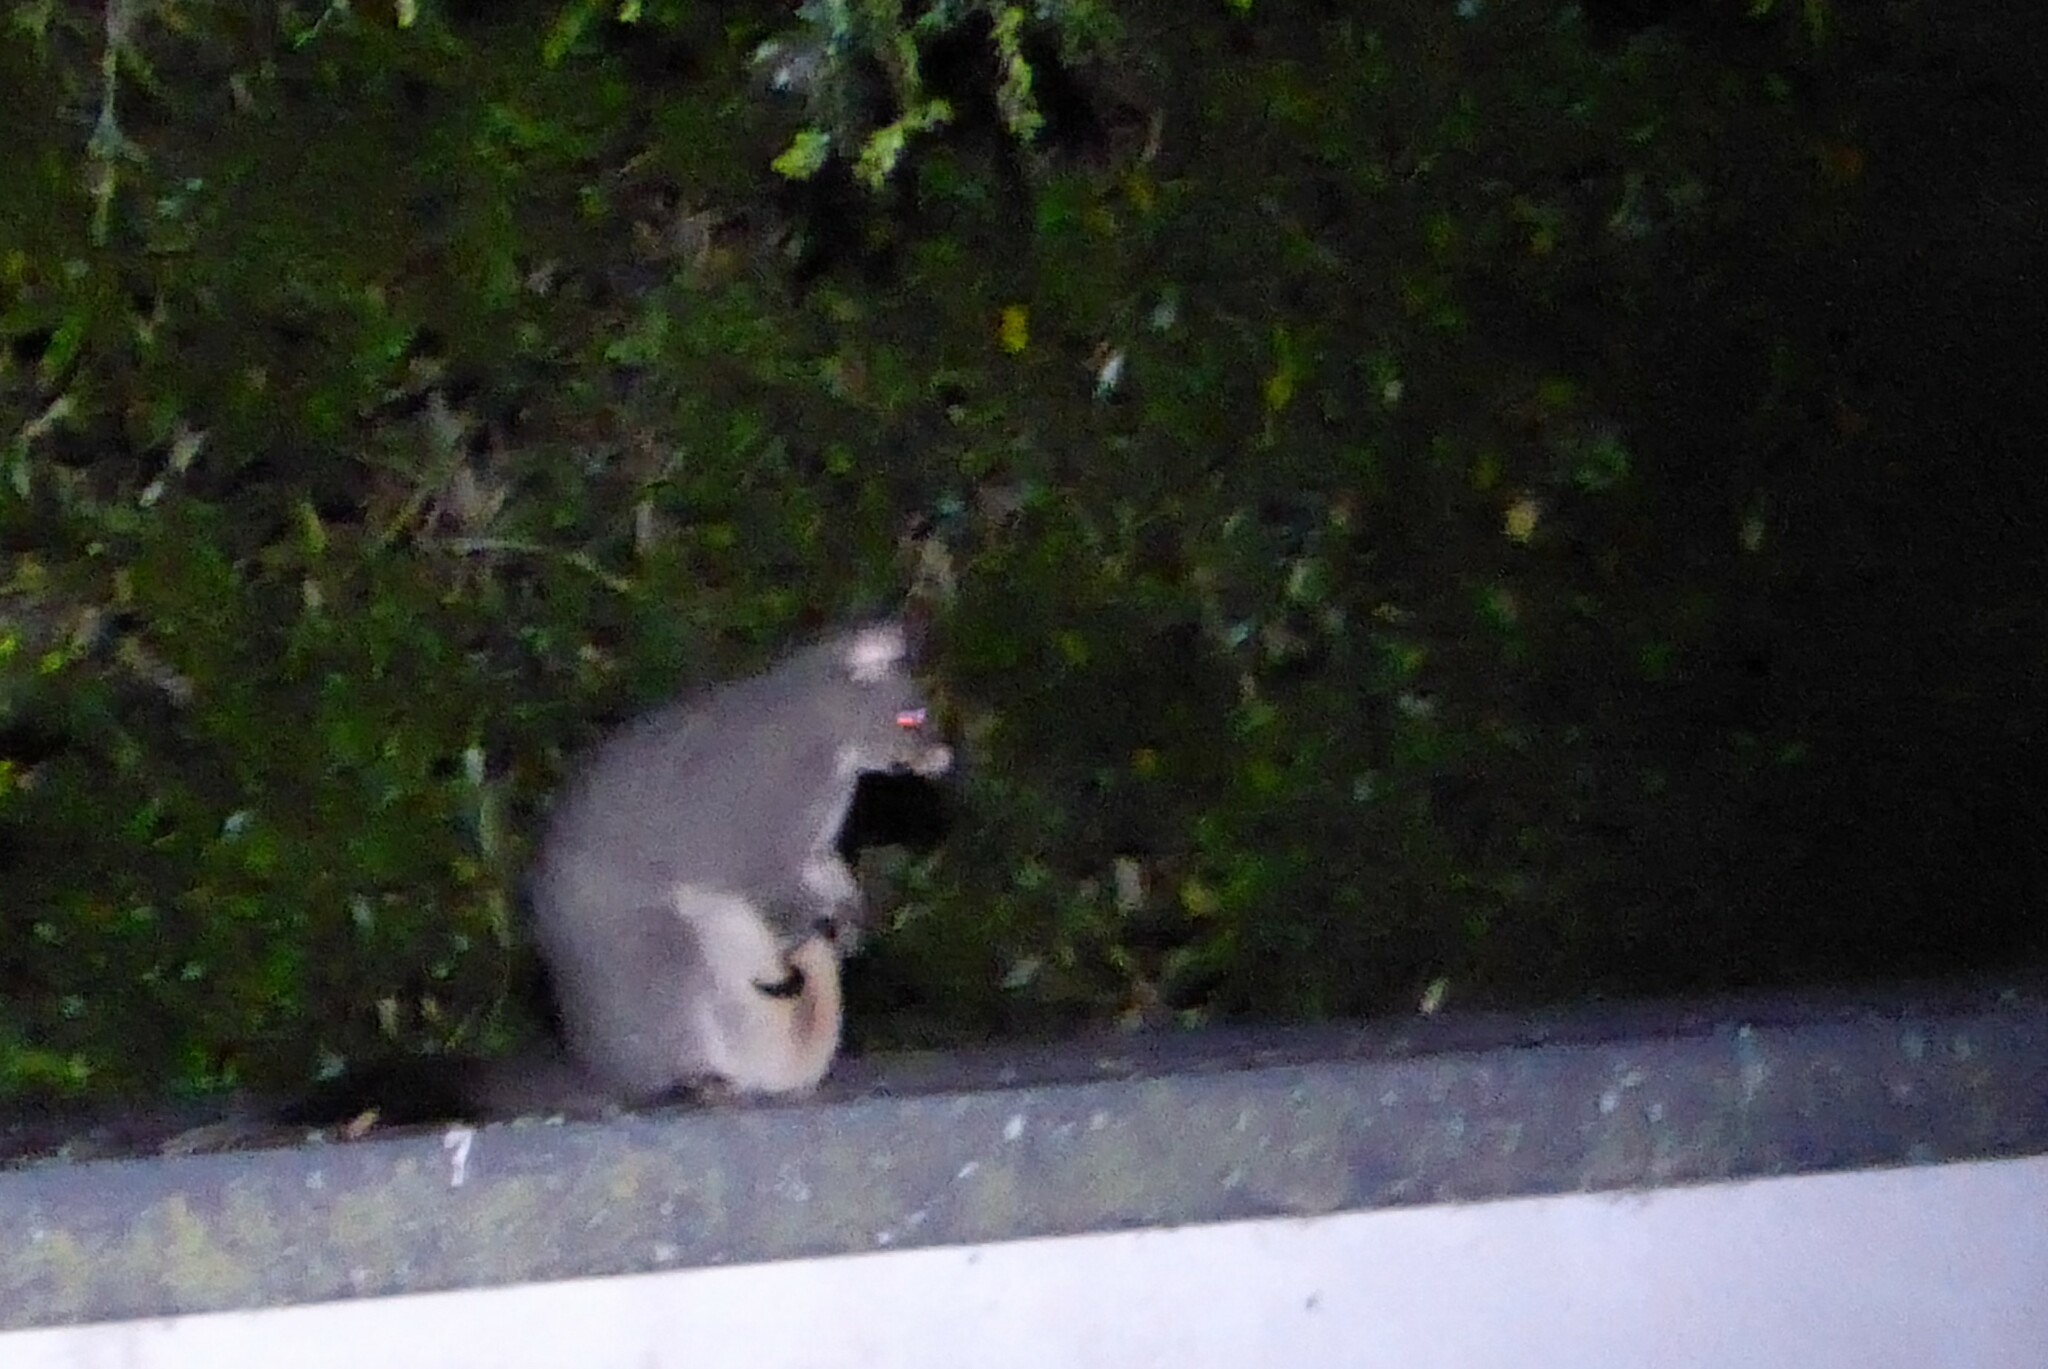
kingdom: Animalia
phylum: Chordata
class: Mammalia
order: Diprotodontia
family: Phalangeridae
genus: Trichosurus
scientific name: Trichosurus vulpecula
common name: Common brushtail
